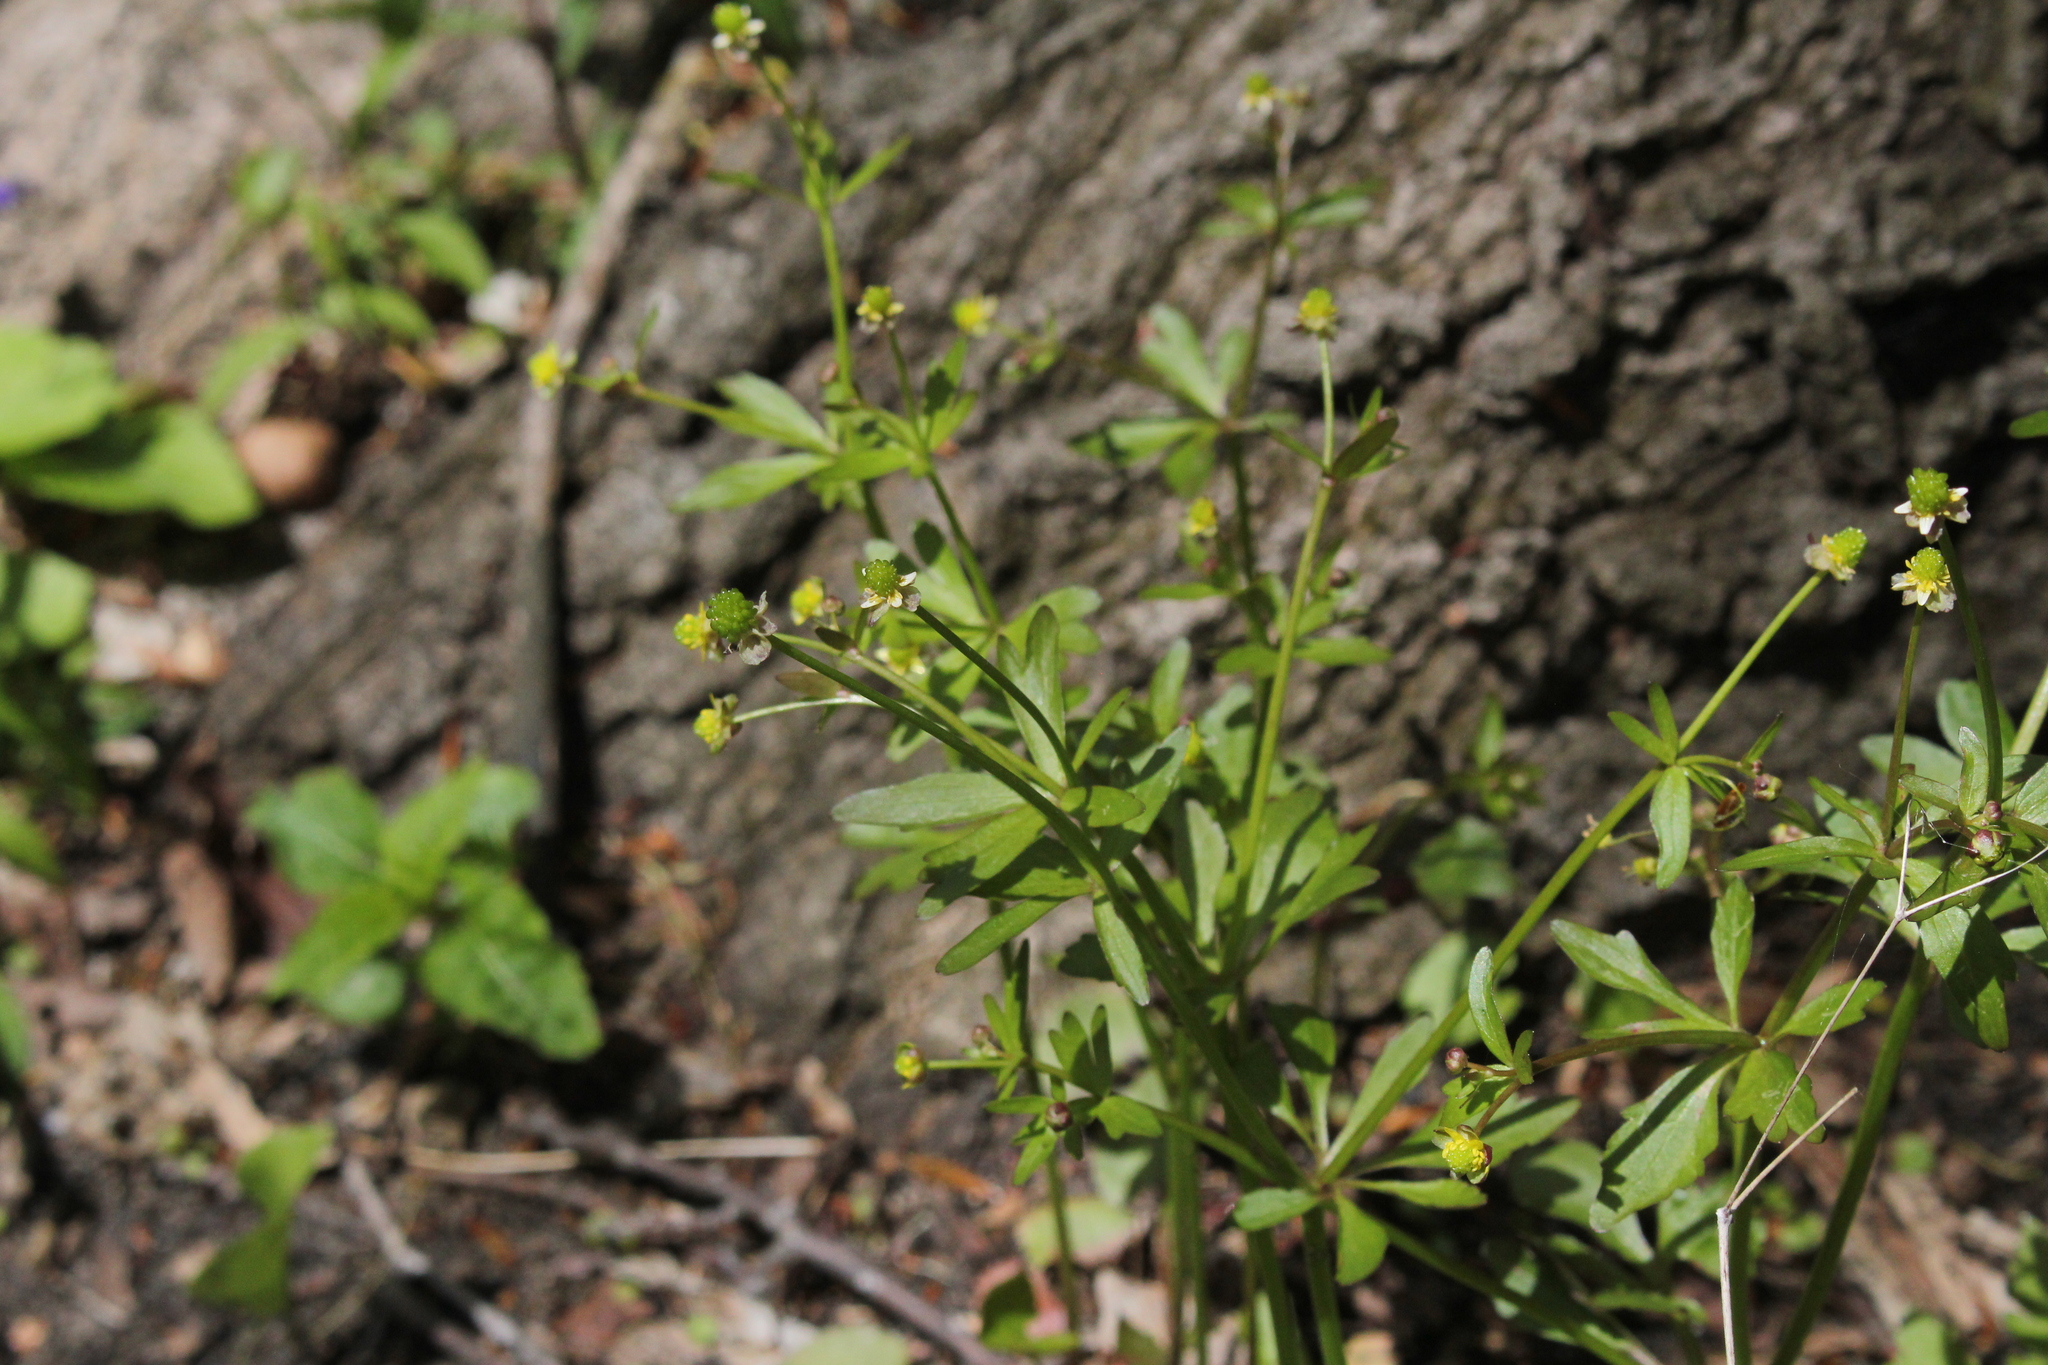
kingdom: Plantae
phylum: Tracheophyta
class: Magnoliopsida
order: Ranunculales
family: Ranunculaceae
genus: Ranunculus
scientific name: Ranunculus abortivus
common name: Early wood buttercup
